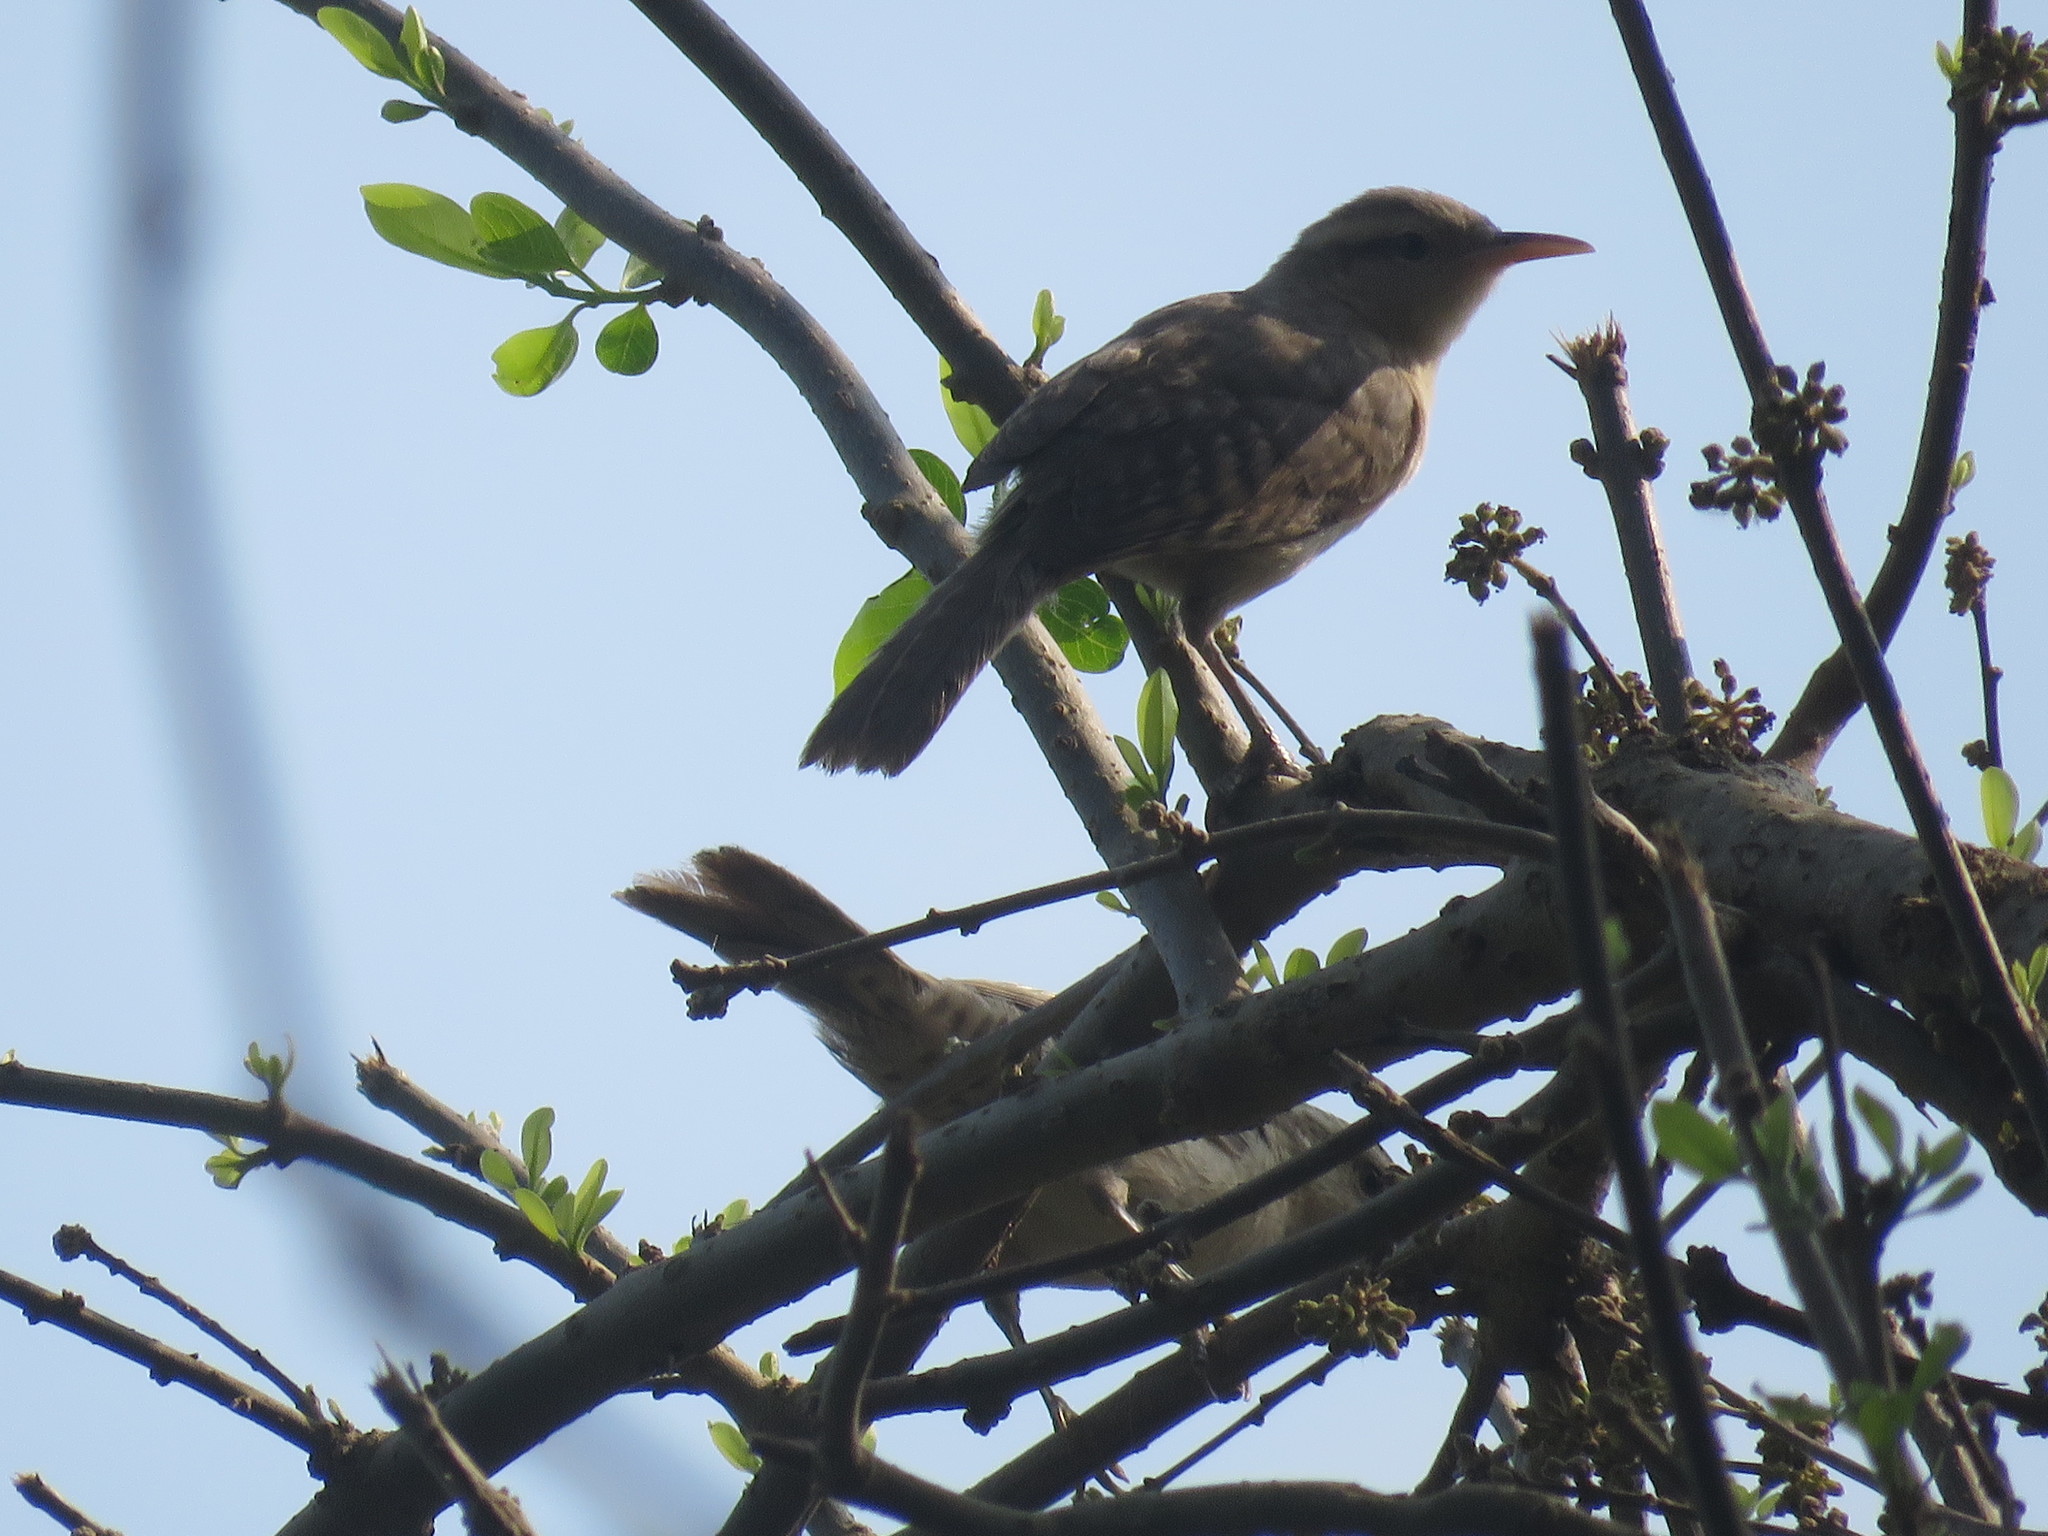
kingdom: Animalia
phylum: Chordata
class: Aves
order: Passeriformes
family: Troglodytidae
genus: Campylorhynchus
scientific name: Campylorhynchus turdinus
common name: Thrush-like wren
